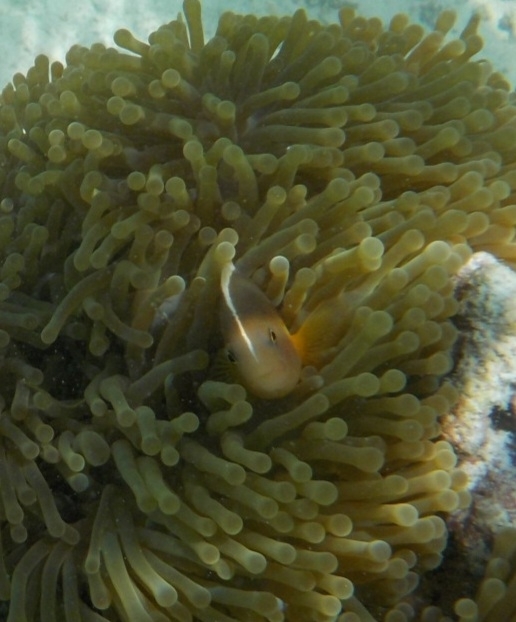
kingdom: Animalia
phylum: Chordata
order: Perciformes
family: Pomacentridae
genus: Amphiprion
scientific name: Amphiprion akallopisos
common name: Skunk clownfish
